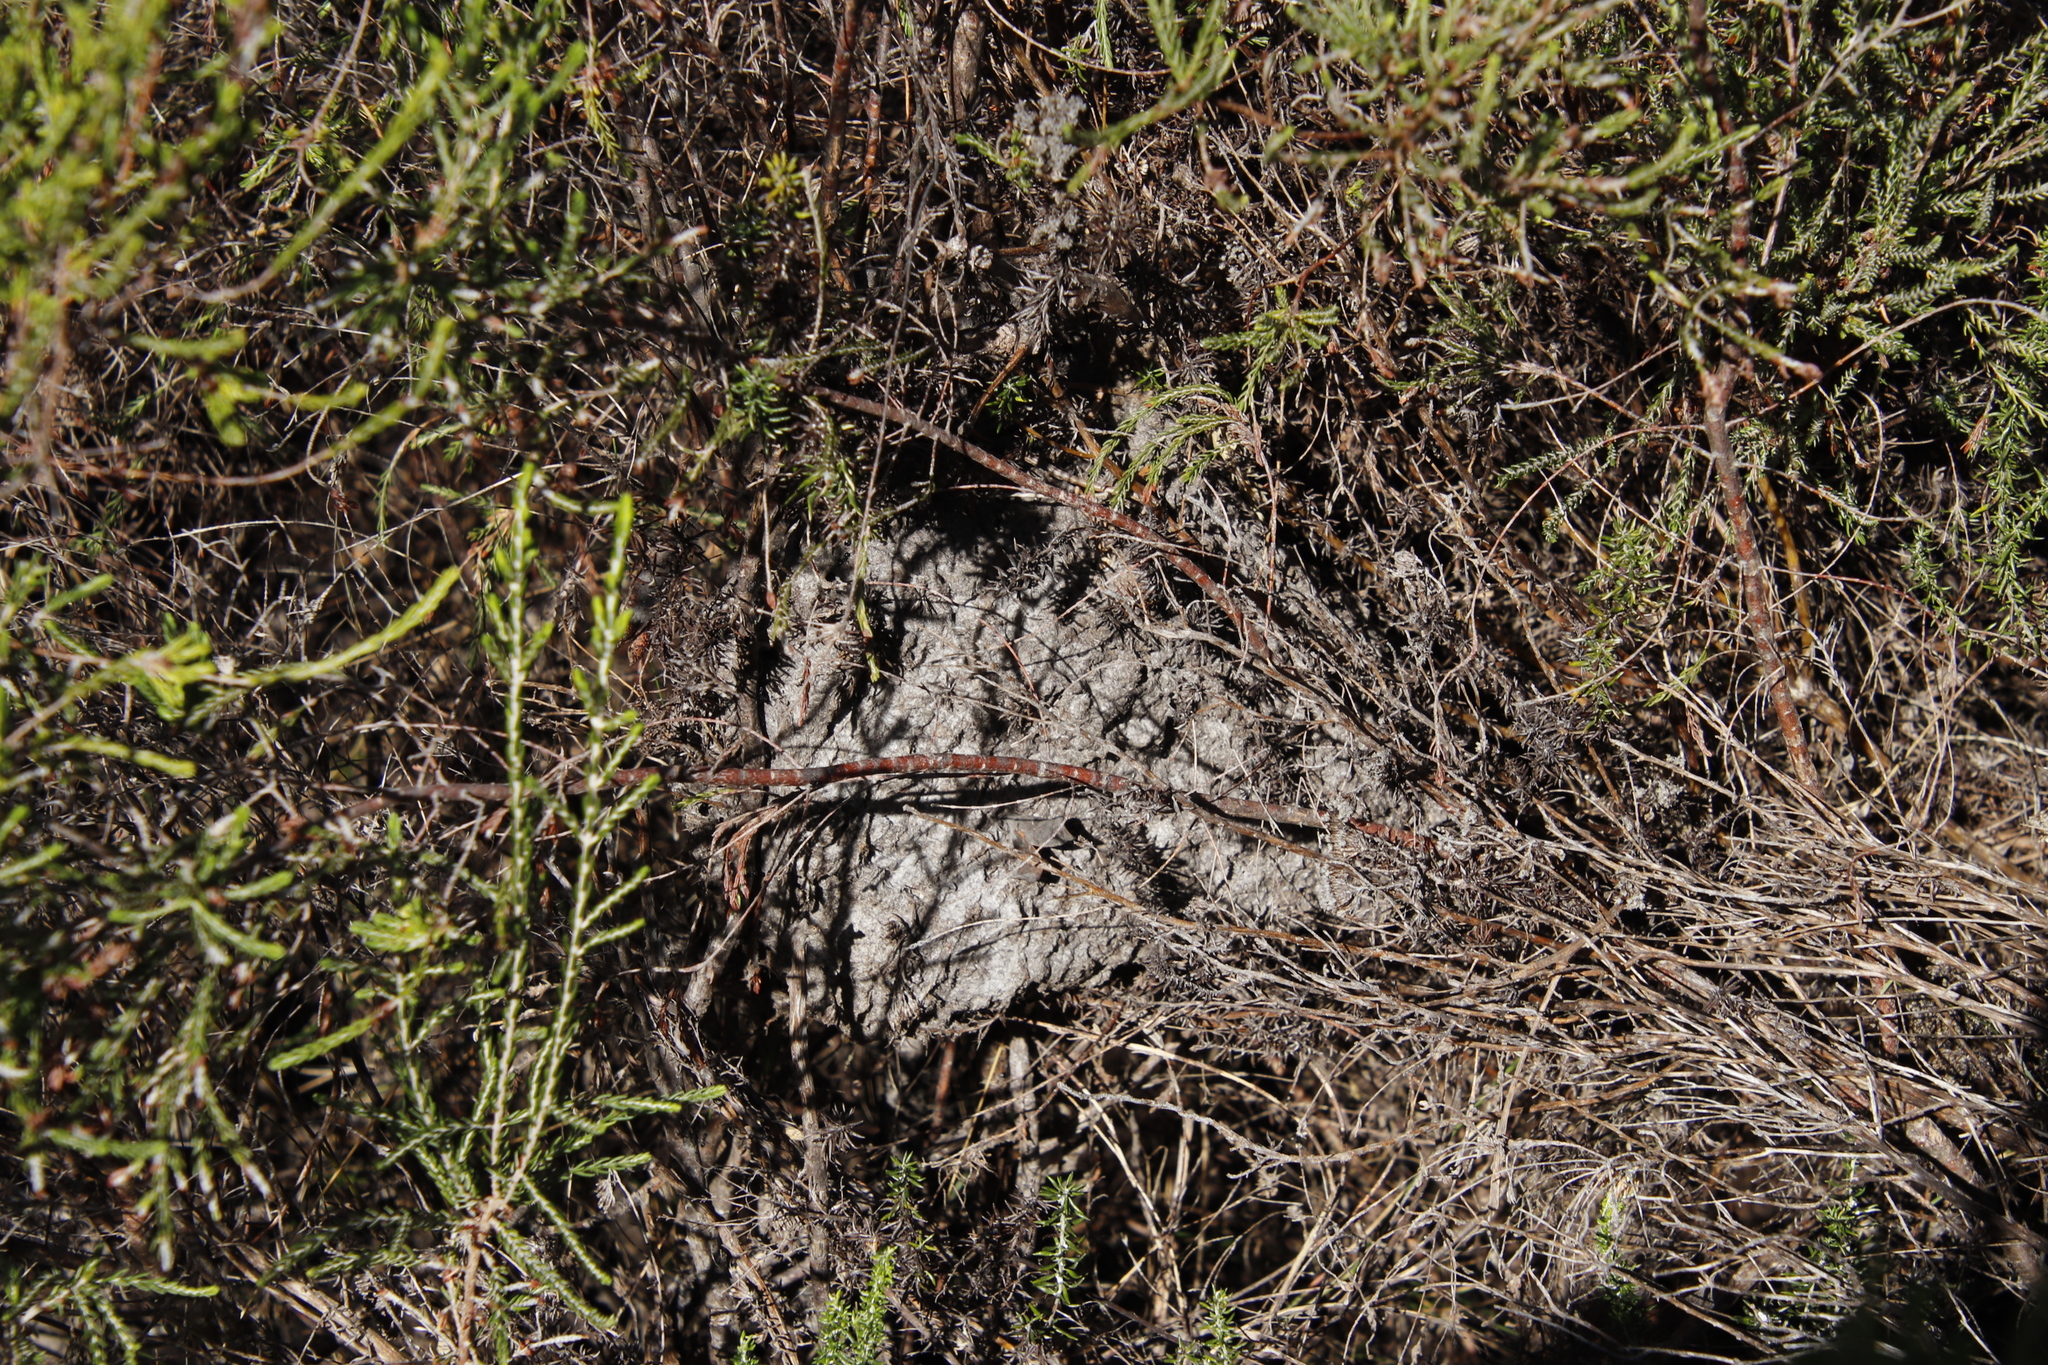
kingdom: Animalia
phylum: Arthropoda
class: Insecta
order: Hymenoptera
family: Formicidae
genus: Crematogaster
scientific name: Crematogaster peringueyi
